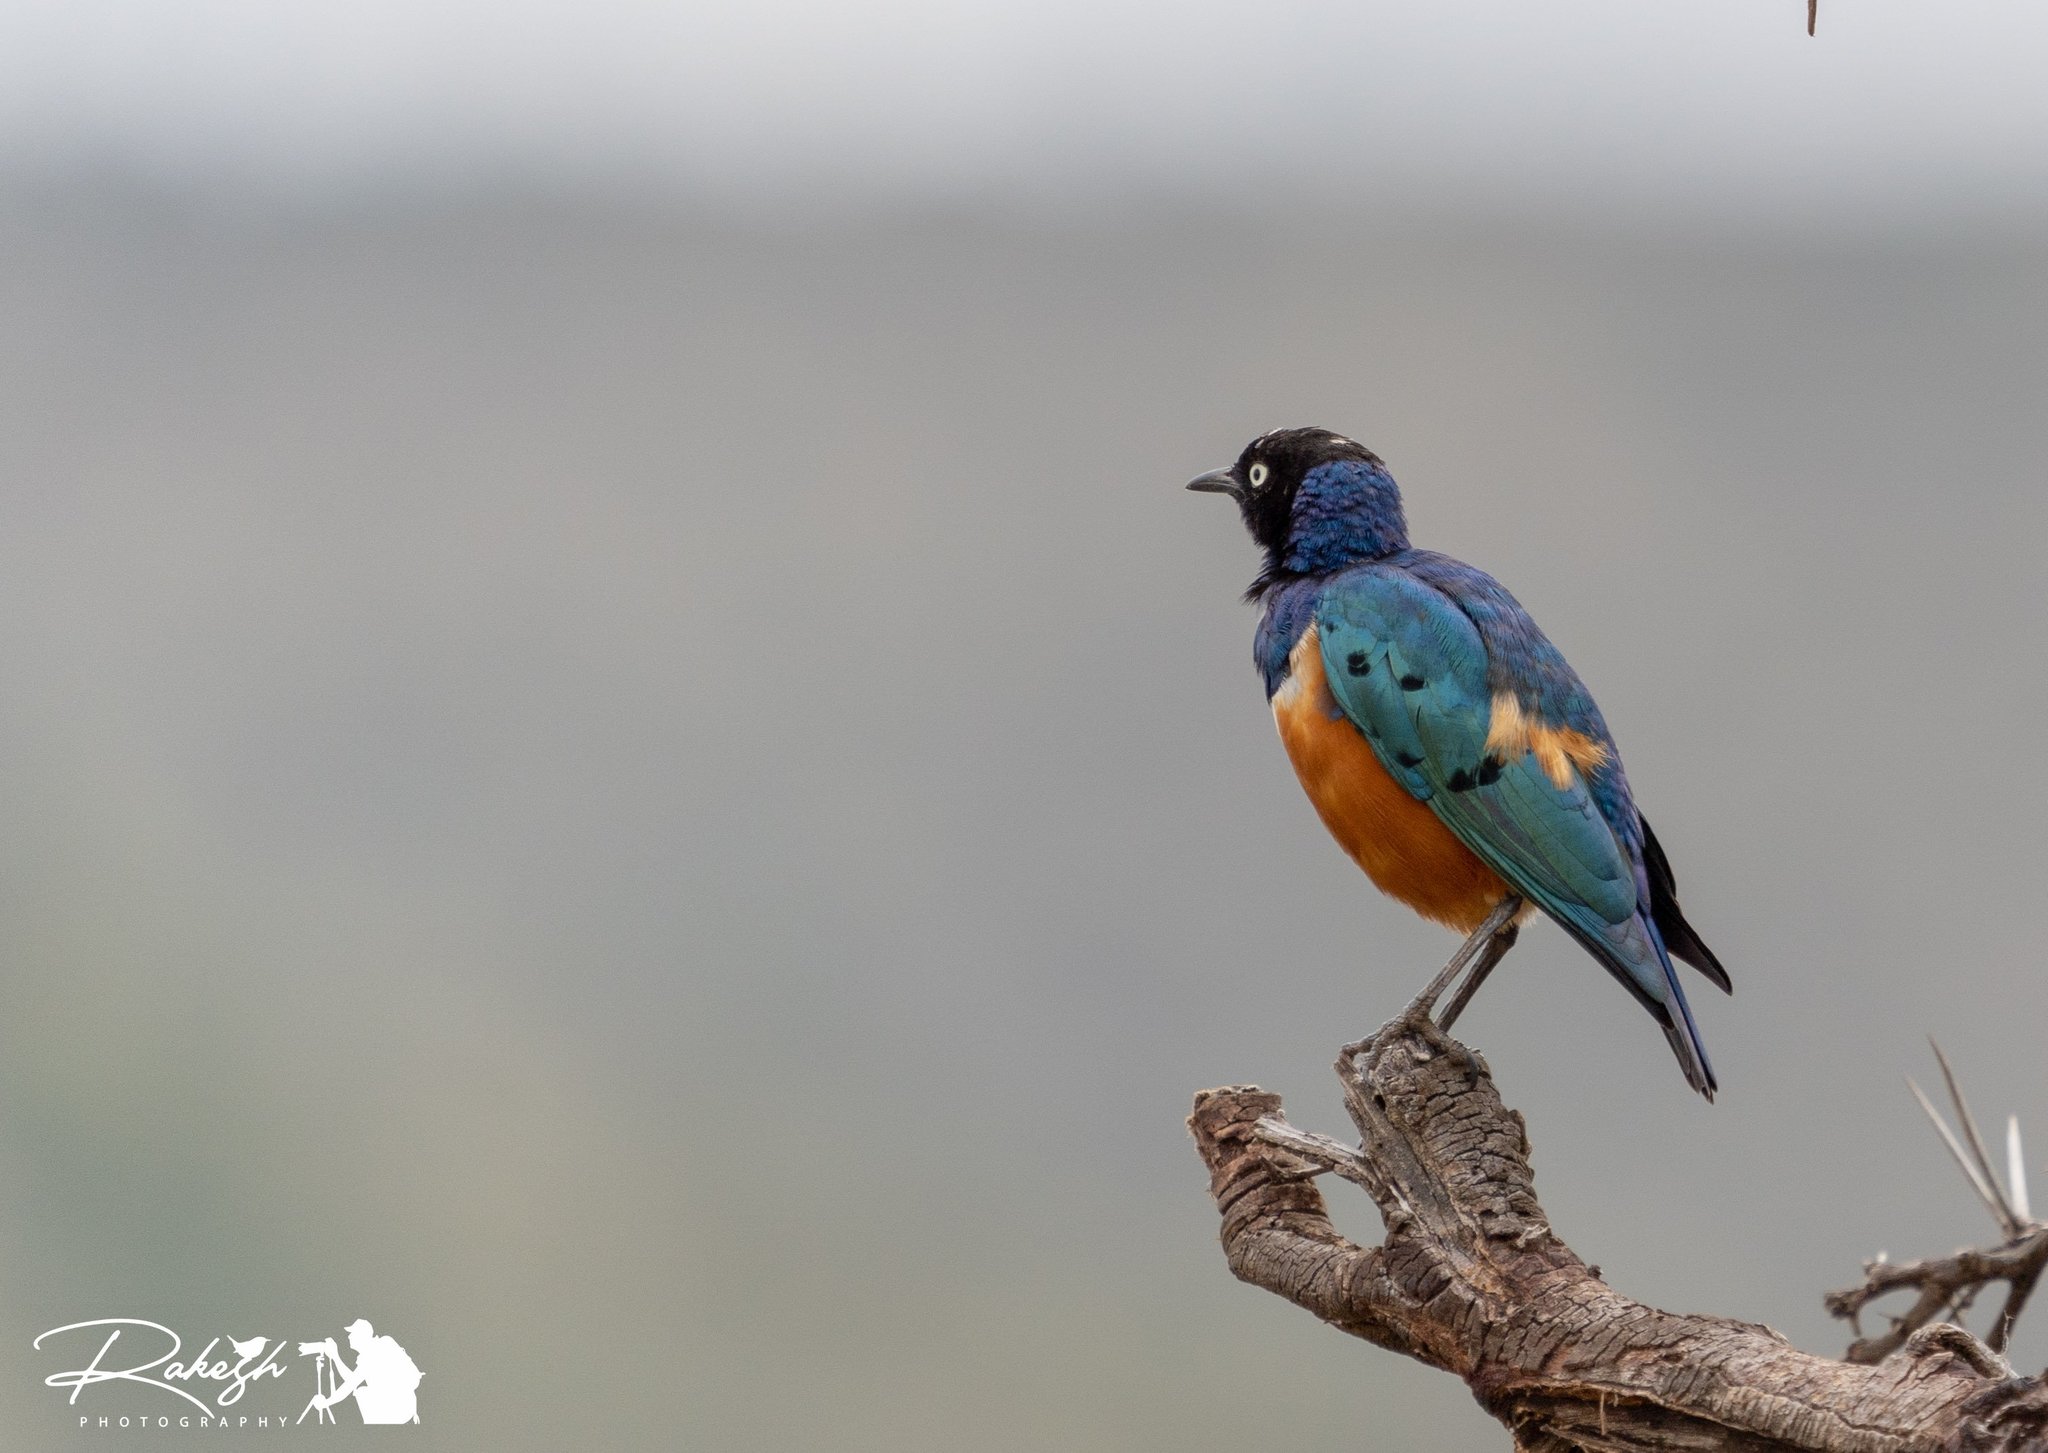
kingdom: Animalia
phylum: Chordata
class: Aves
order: Passeriformes
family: Sturnidae
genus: Lamprotornis
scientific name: Lamprotornis superbus
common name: Superb starling
